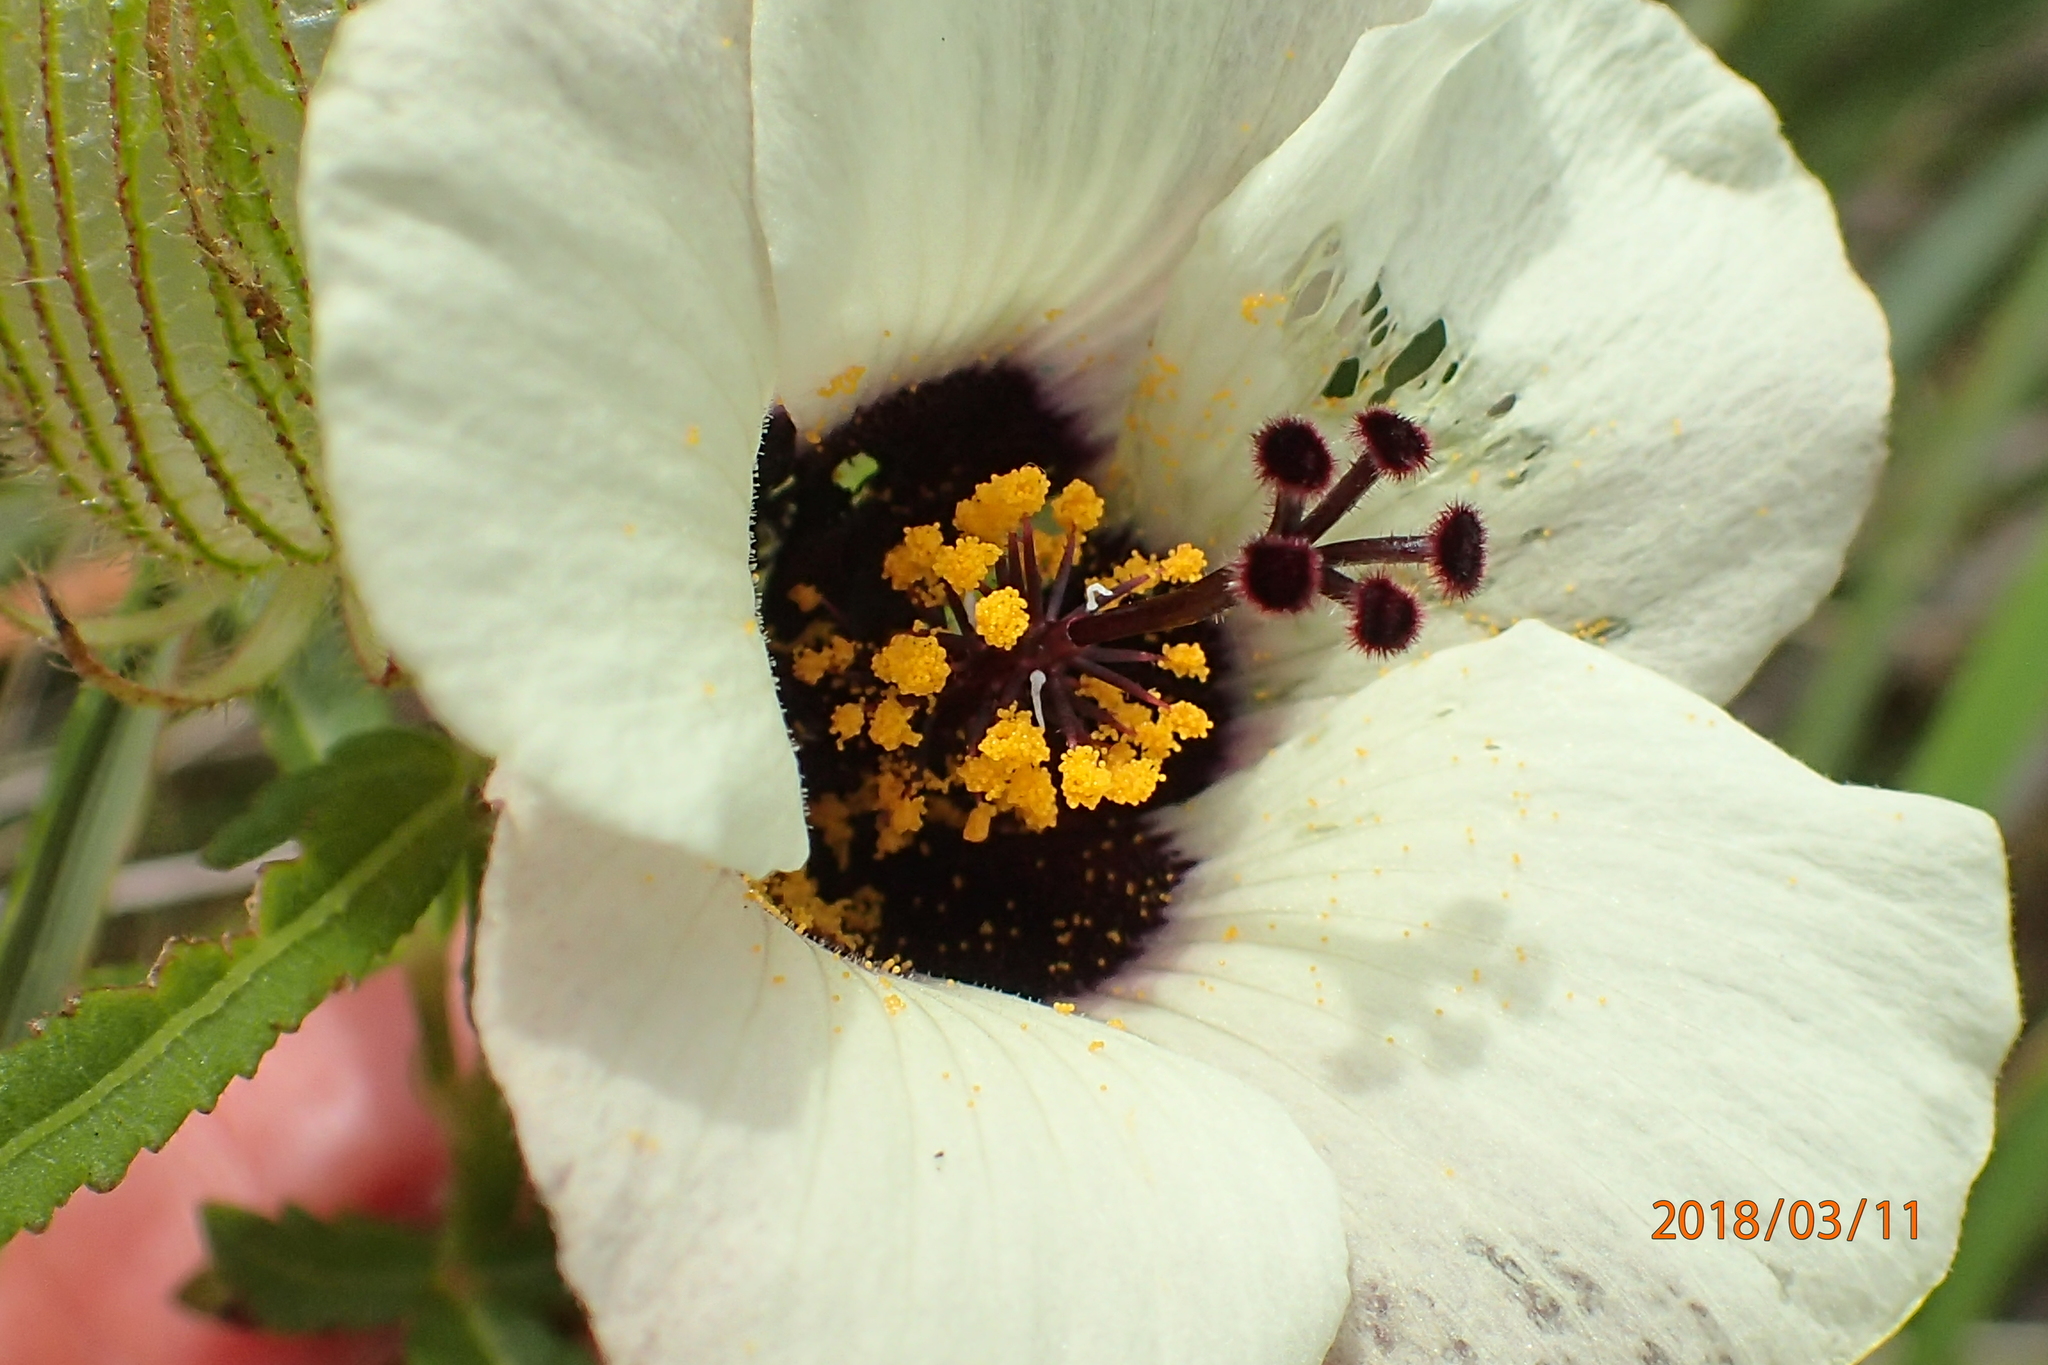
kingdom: Plantae
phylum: Tracheophyta
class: Magnoliopsida
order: Malvales
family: Malvaceae
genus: Hibiscus
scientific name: Hibiscus trionum
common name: Bladder ketmia
